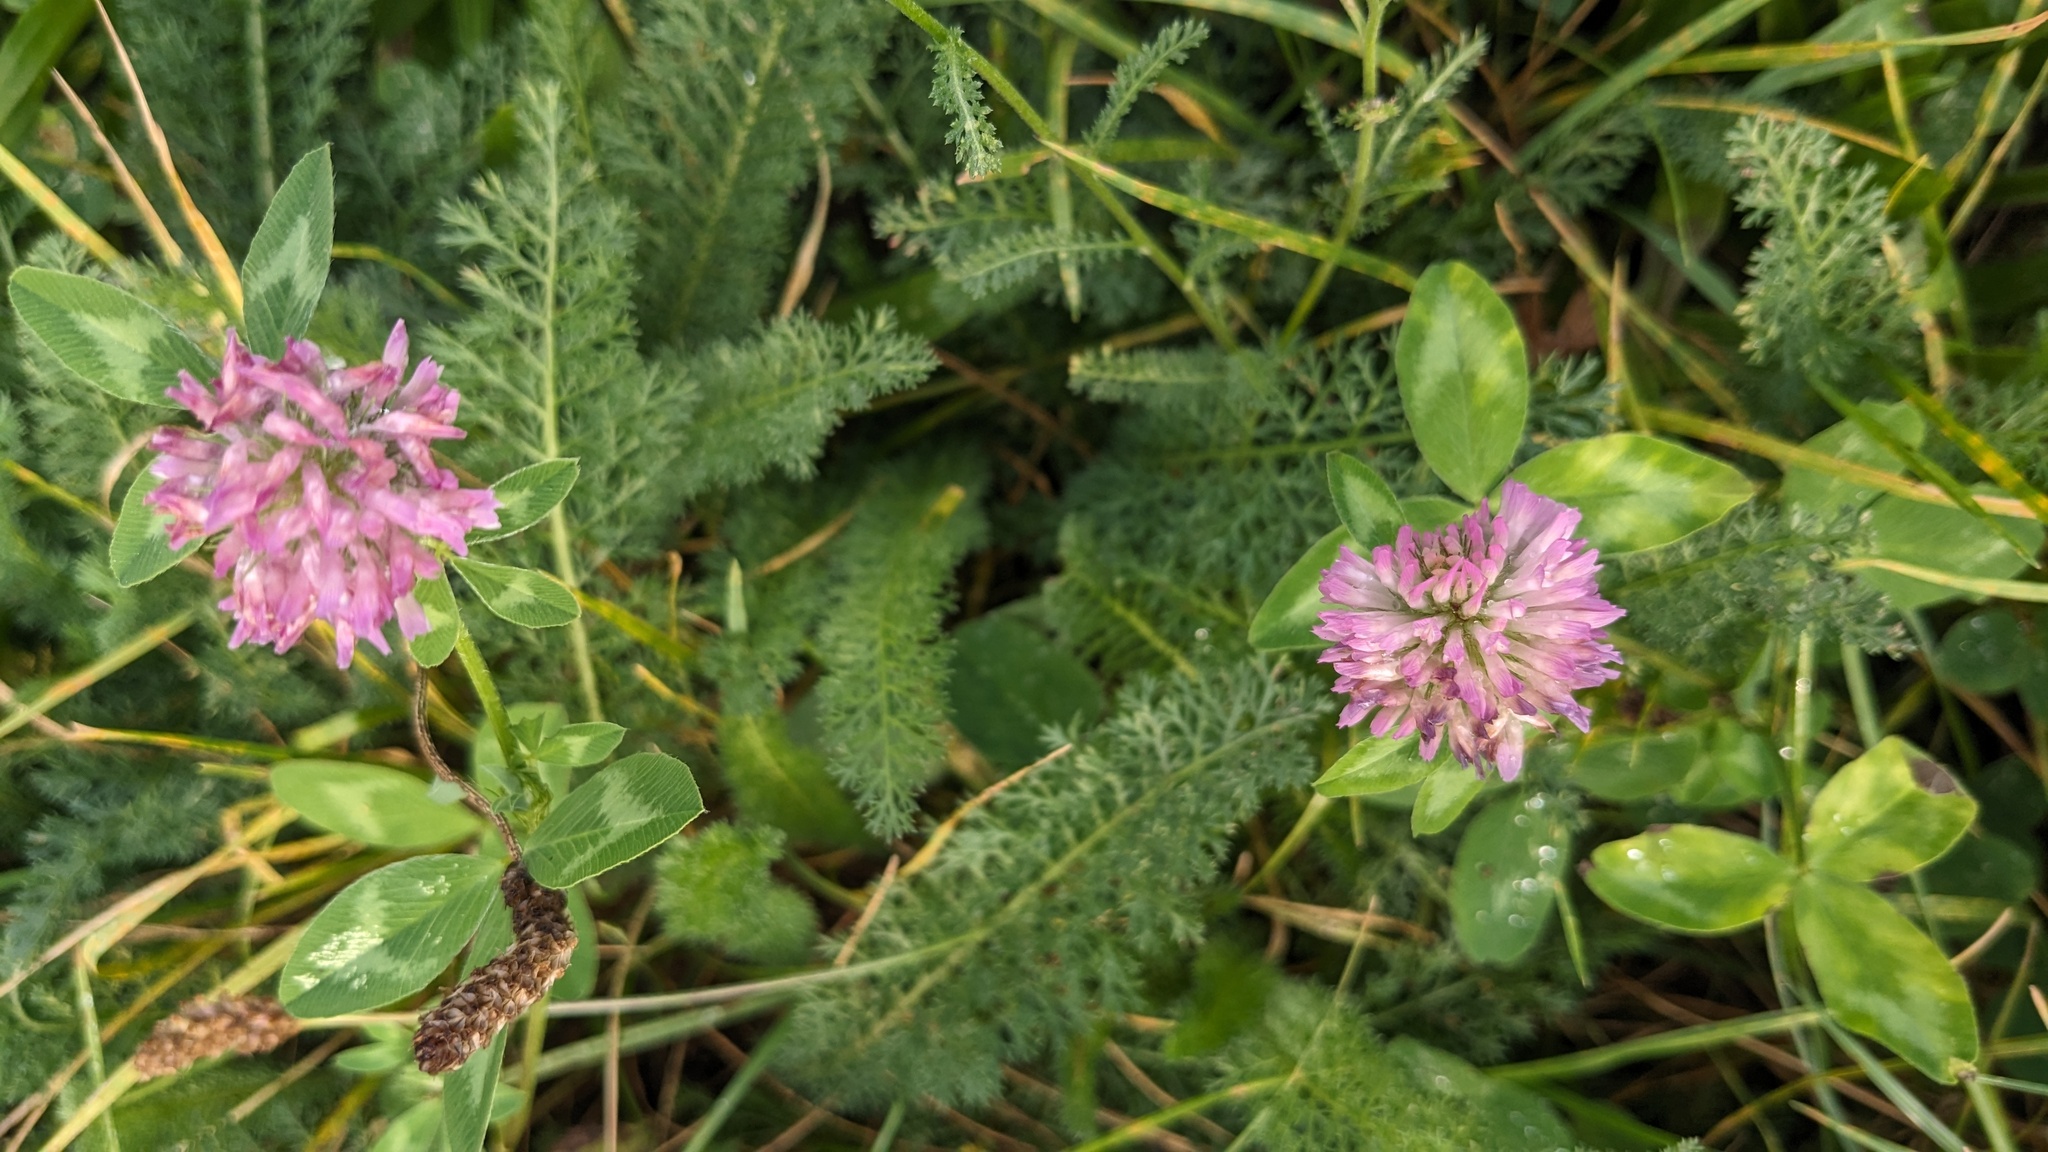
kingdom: Plantae
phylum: Tracheophyta
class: Magnoliopsida
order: Fabales
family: Fabaceae
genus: Trifolium
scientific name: Trifolium pratense
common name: Red clover
